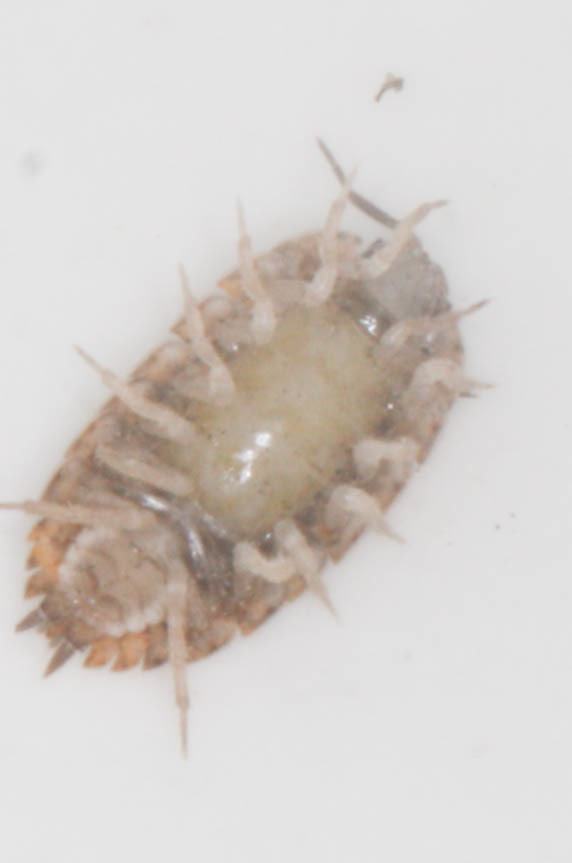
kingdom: Animalia
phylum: Arthropoda
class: Malacostraca
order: Isopoda
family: Trachelipodidae
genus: Trachelipus
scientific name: Trachelipus rathkii
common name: Isopod
